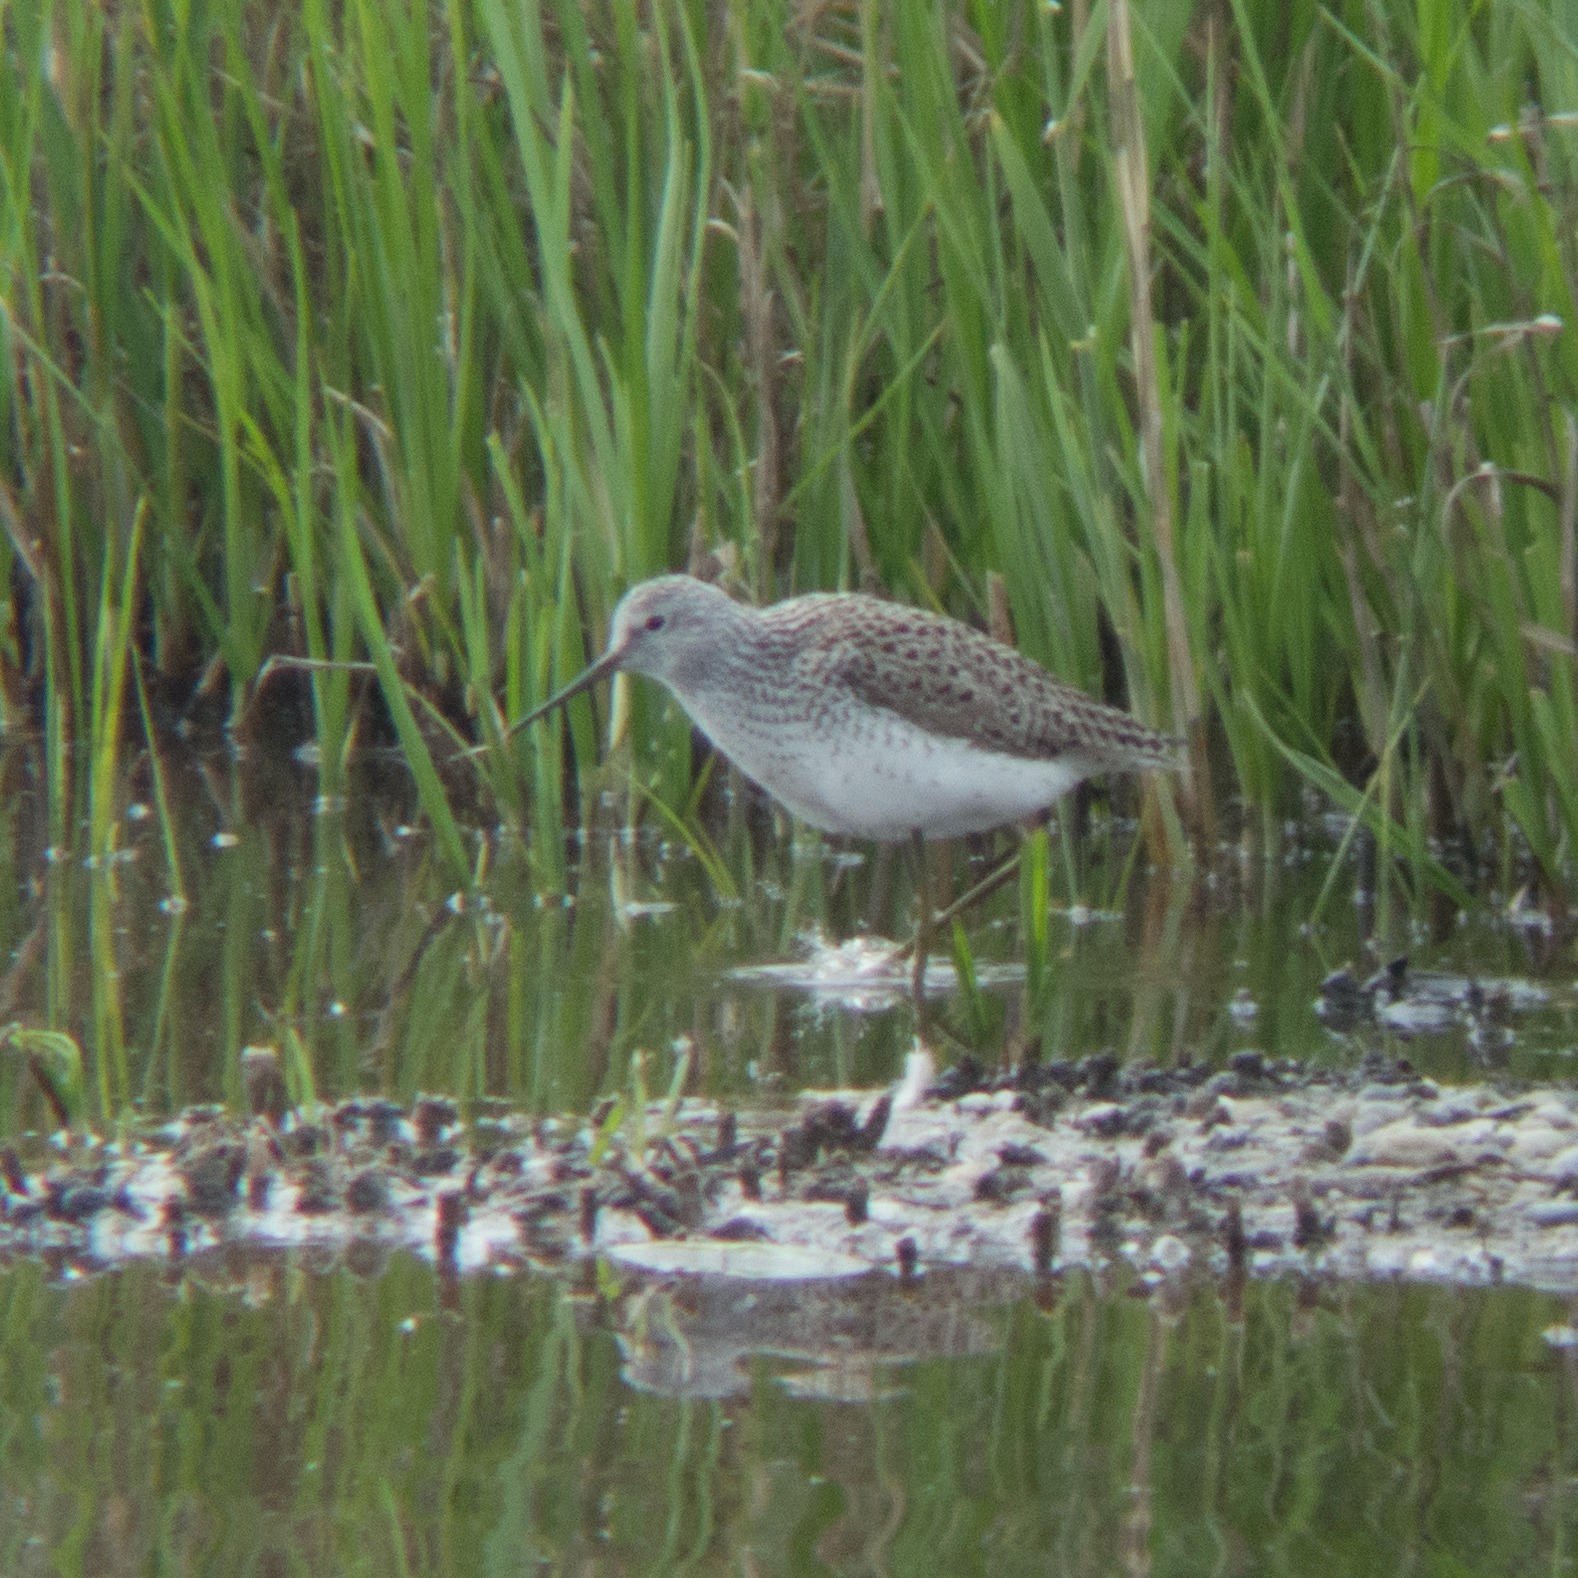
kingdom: Animalia
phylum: Chordata
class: Aves
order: Charadriiformes
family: Scolopacidae
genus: Tringa
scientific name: Tringa stagnatilis
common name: Marsh sandpiper
